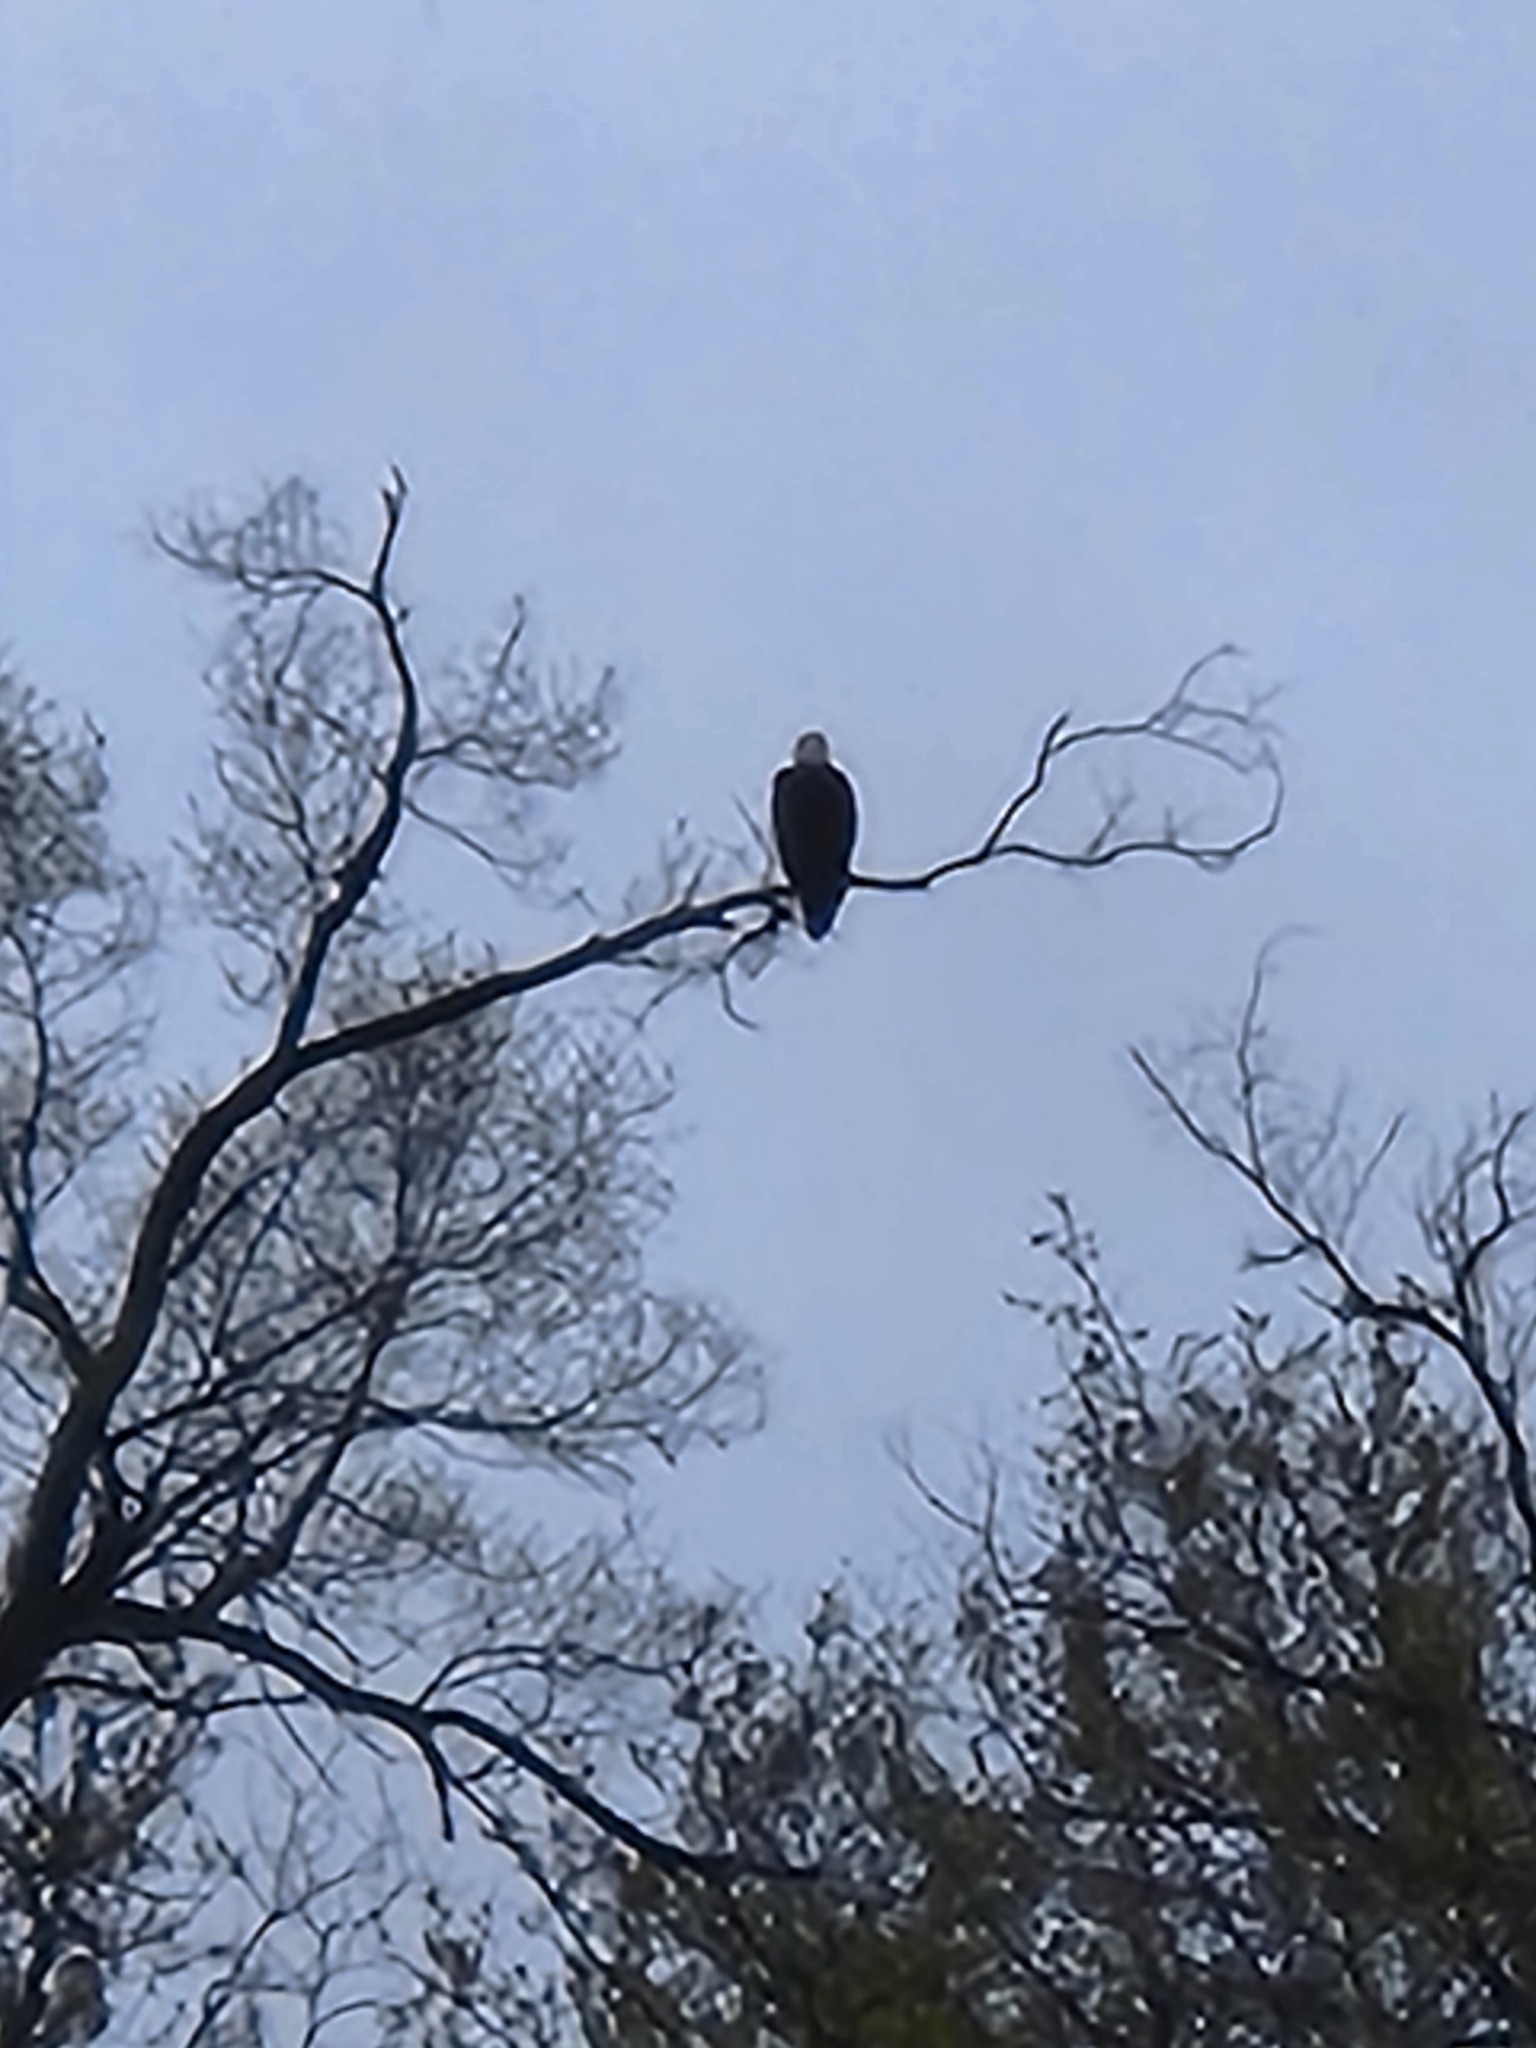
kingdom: Animalia
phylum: Chordata
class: Aves
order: Accipitriformes
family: Accipitridae
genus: Haliaeetus
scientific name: Haliaeetus leucocephalus
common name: Bald eagle
